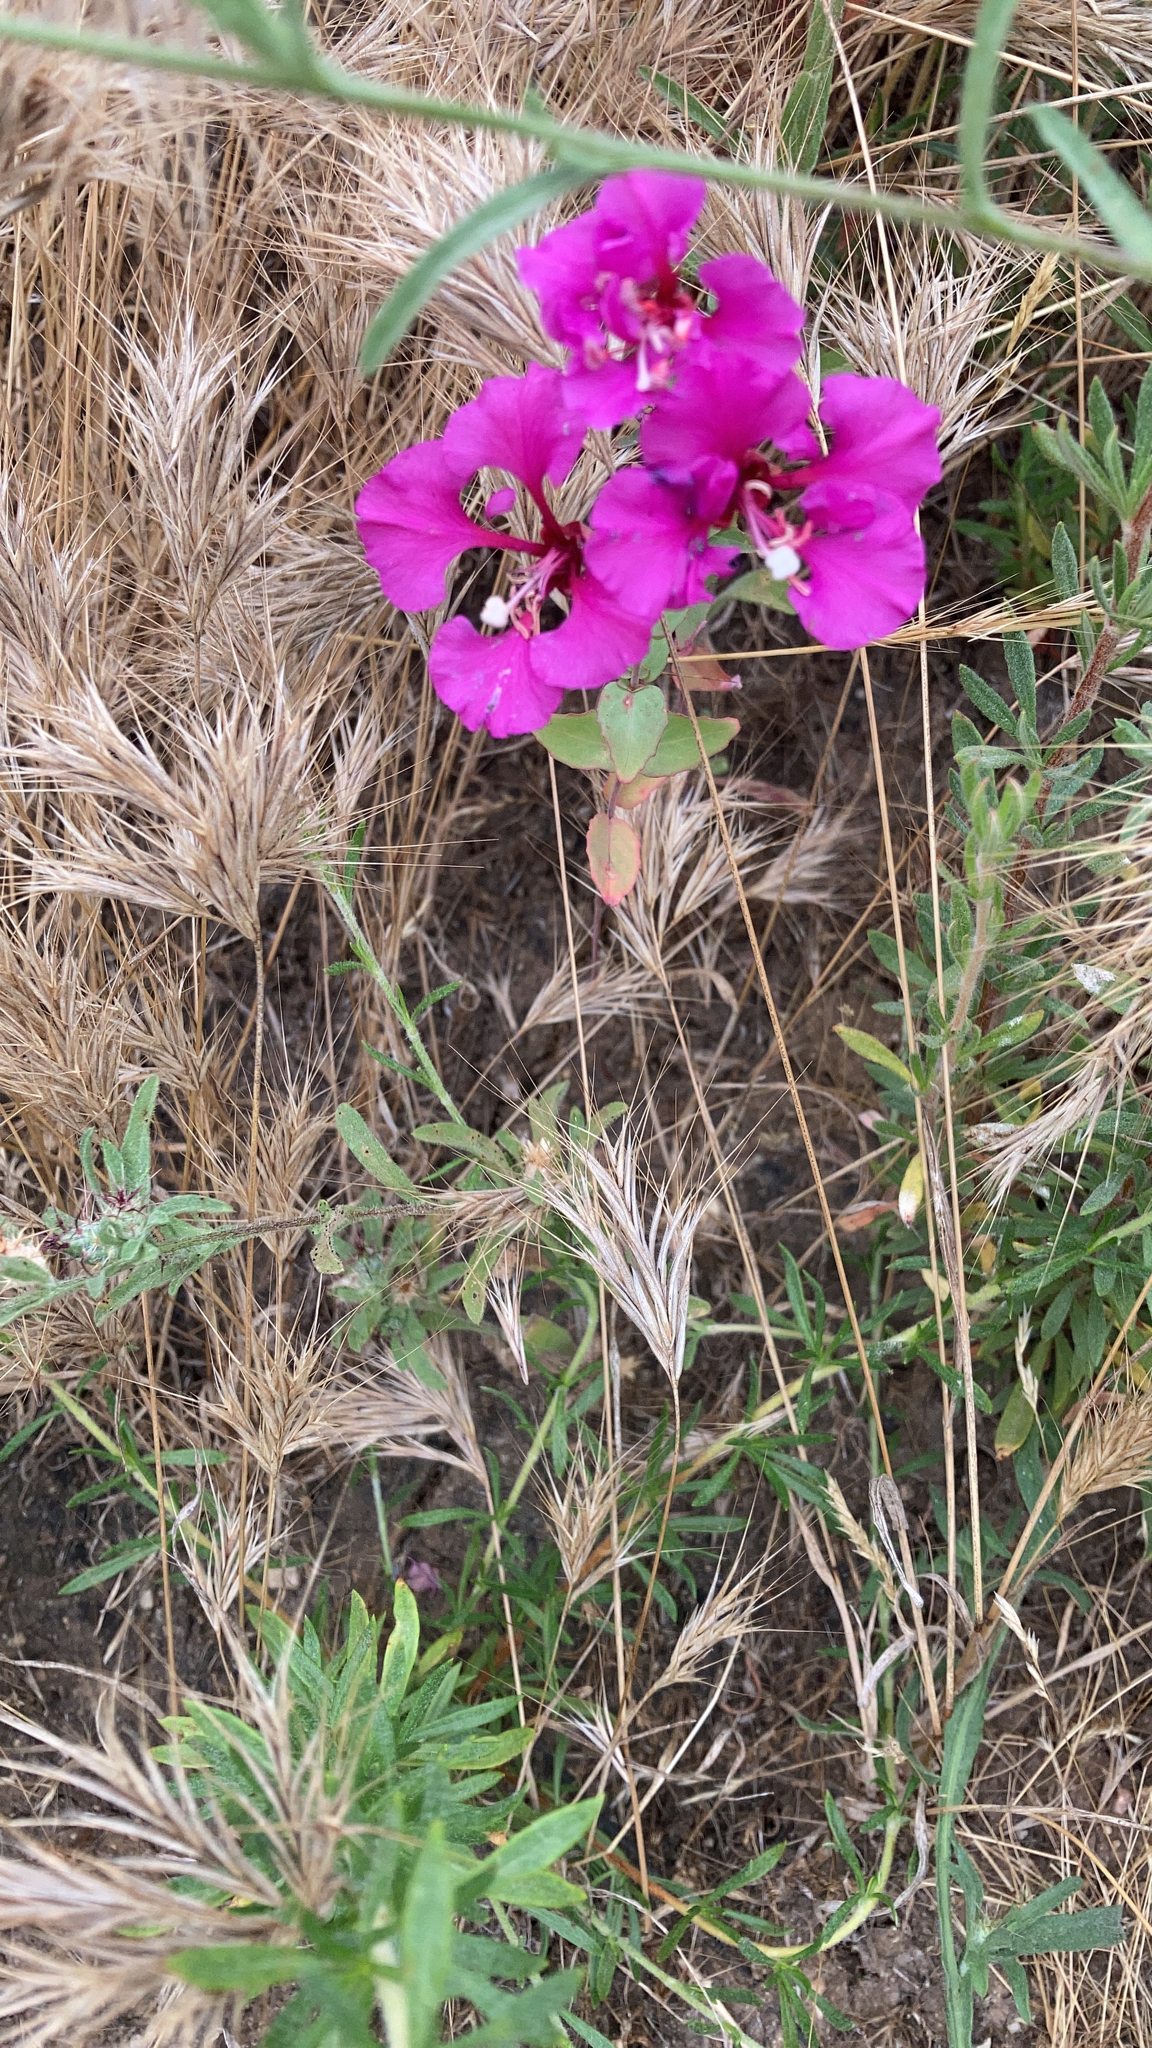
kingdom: Plantae
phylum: Tracheophyta
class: Magnoliopsida
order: Myrtales
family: Onagraceae
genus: Clarkia
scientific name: Clarkia unguiculata
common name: Clarkia
